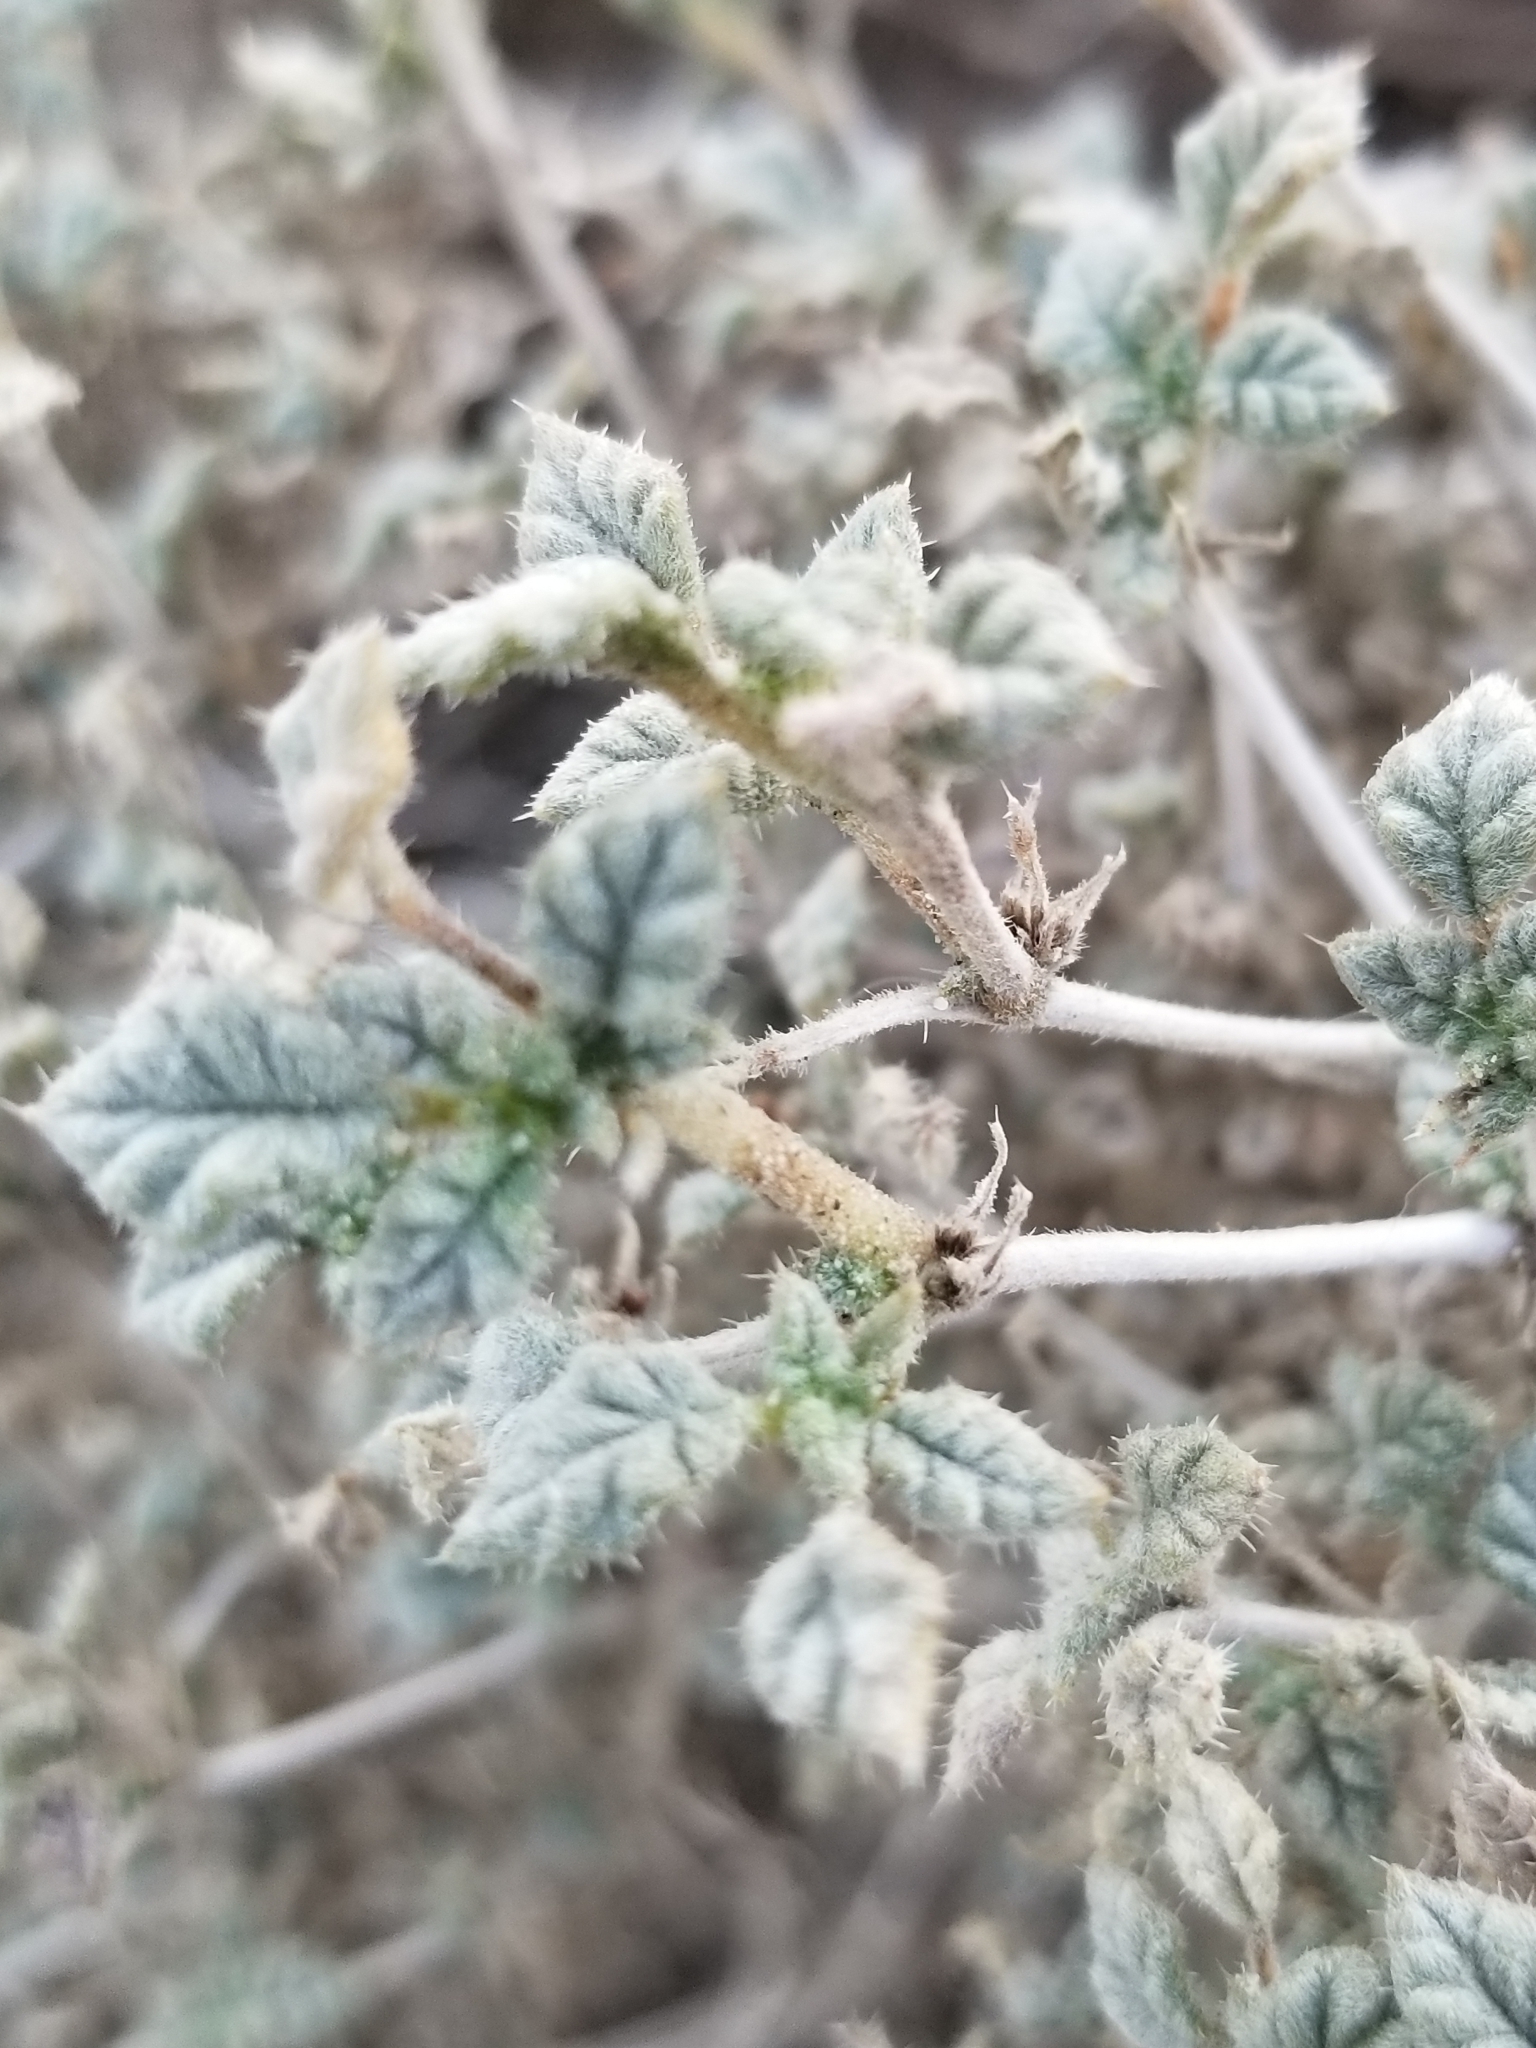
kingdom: Plantae
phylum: Tracheophyta
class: Magnoliopsida
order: Boraginales
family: Ehretiaceae
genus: Tiquilia
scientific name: Tiquilia palmeri
